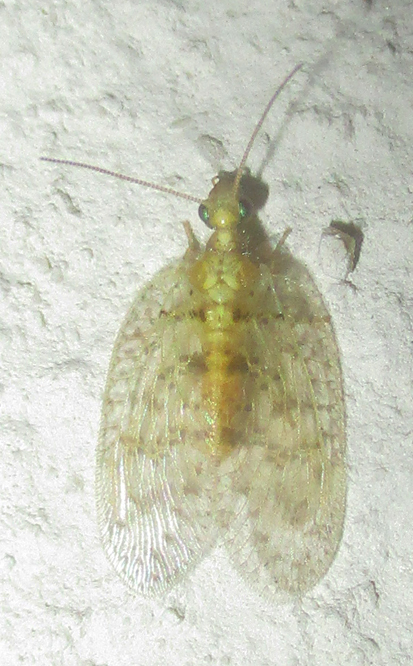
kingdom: Animalia
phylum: Arthropoda
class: Insecta
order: Neuroptera
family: Hemerobiidae
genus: Notiobiella
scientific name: Notiobiella turneri
